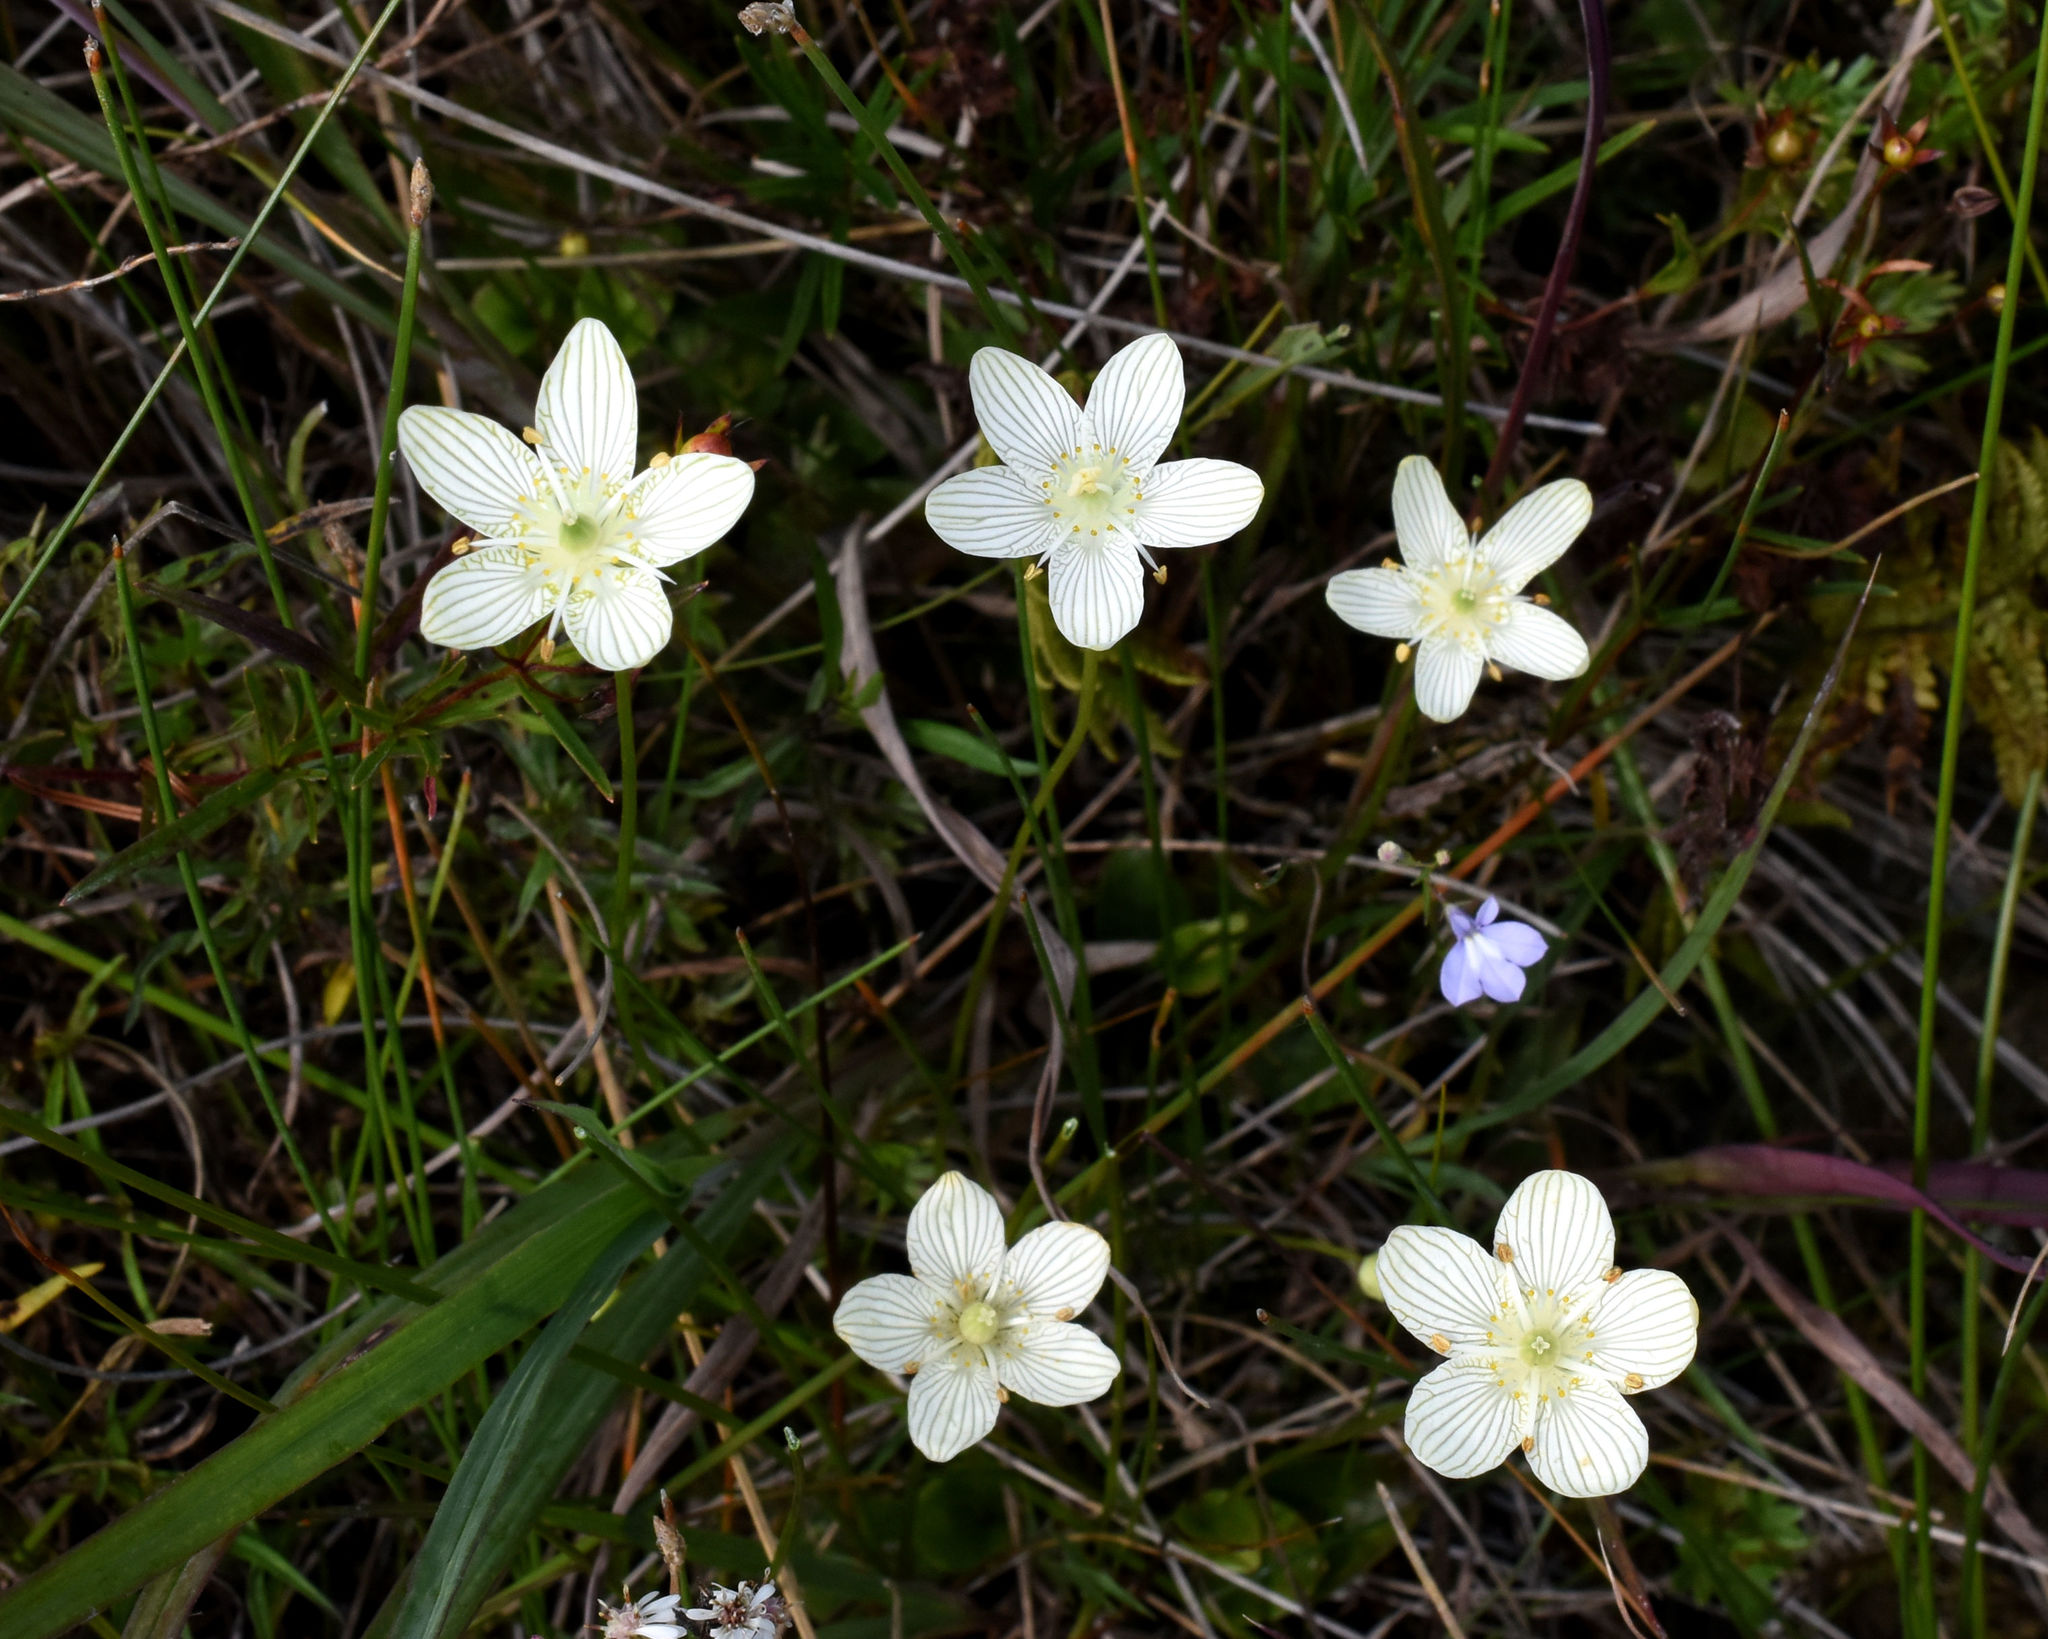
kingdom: Plantae
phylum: Tracheophyta
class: Magnoliopsida
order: Celastrales
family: Parnassiaceae
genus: Parnassia
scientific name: Parnassia glauca
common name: American grass-of-parnassus
